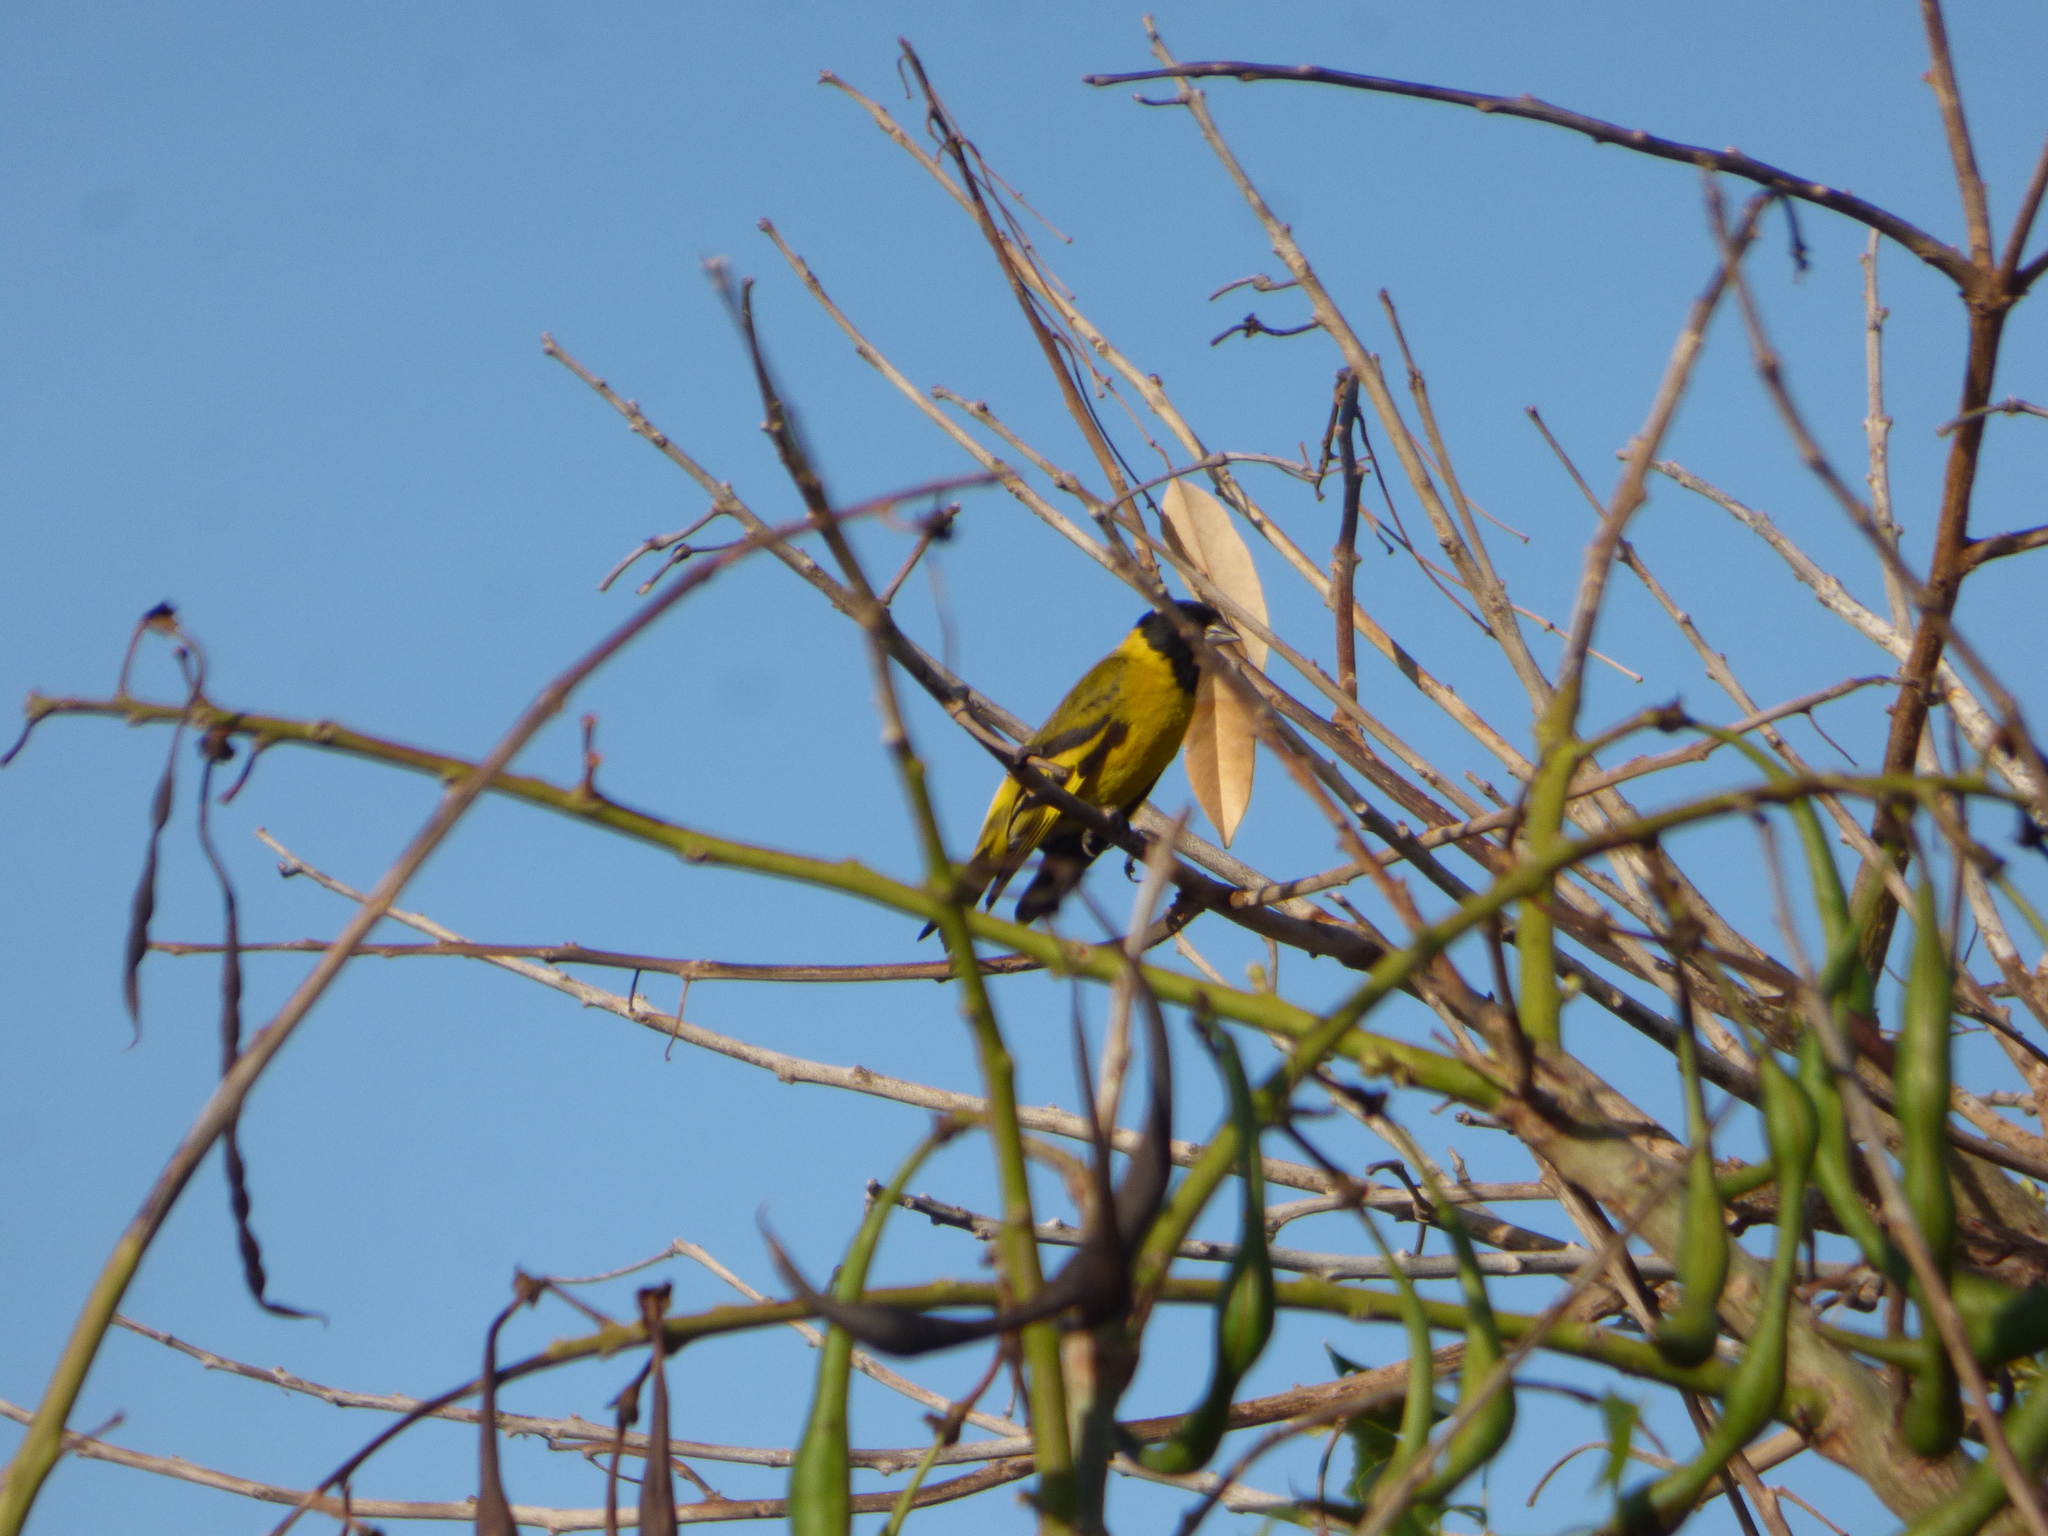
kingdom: Animalia
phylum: Chordata
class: Aves
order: Passeriformes
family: Fringillidae
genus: Spinus
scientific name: Spinus magellanicus
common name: Hooded siskin
